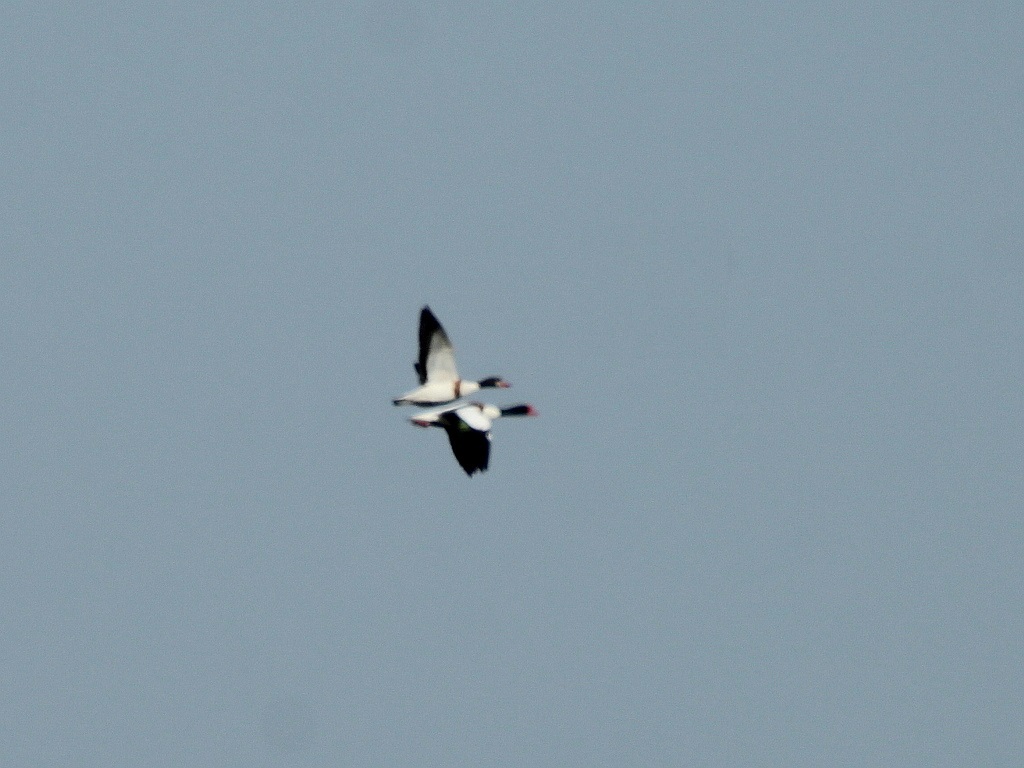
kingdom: Animalia
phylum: Chordata
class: Aves
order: Anseriformes
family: Anatidae
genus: Tadorna
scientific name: Tadorna tadorna
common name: Common shelduck
